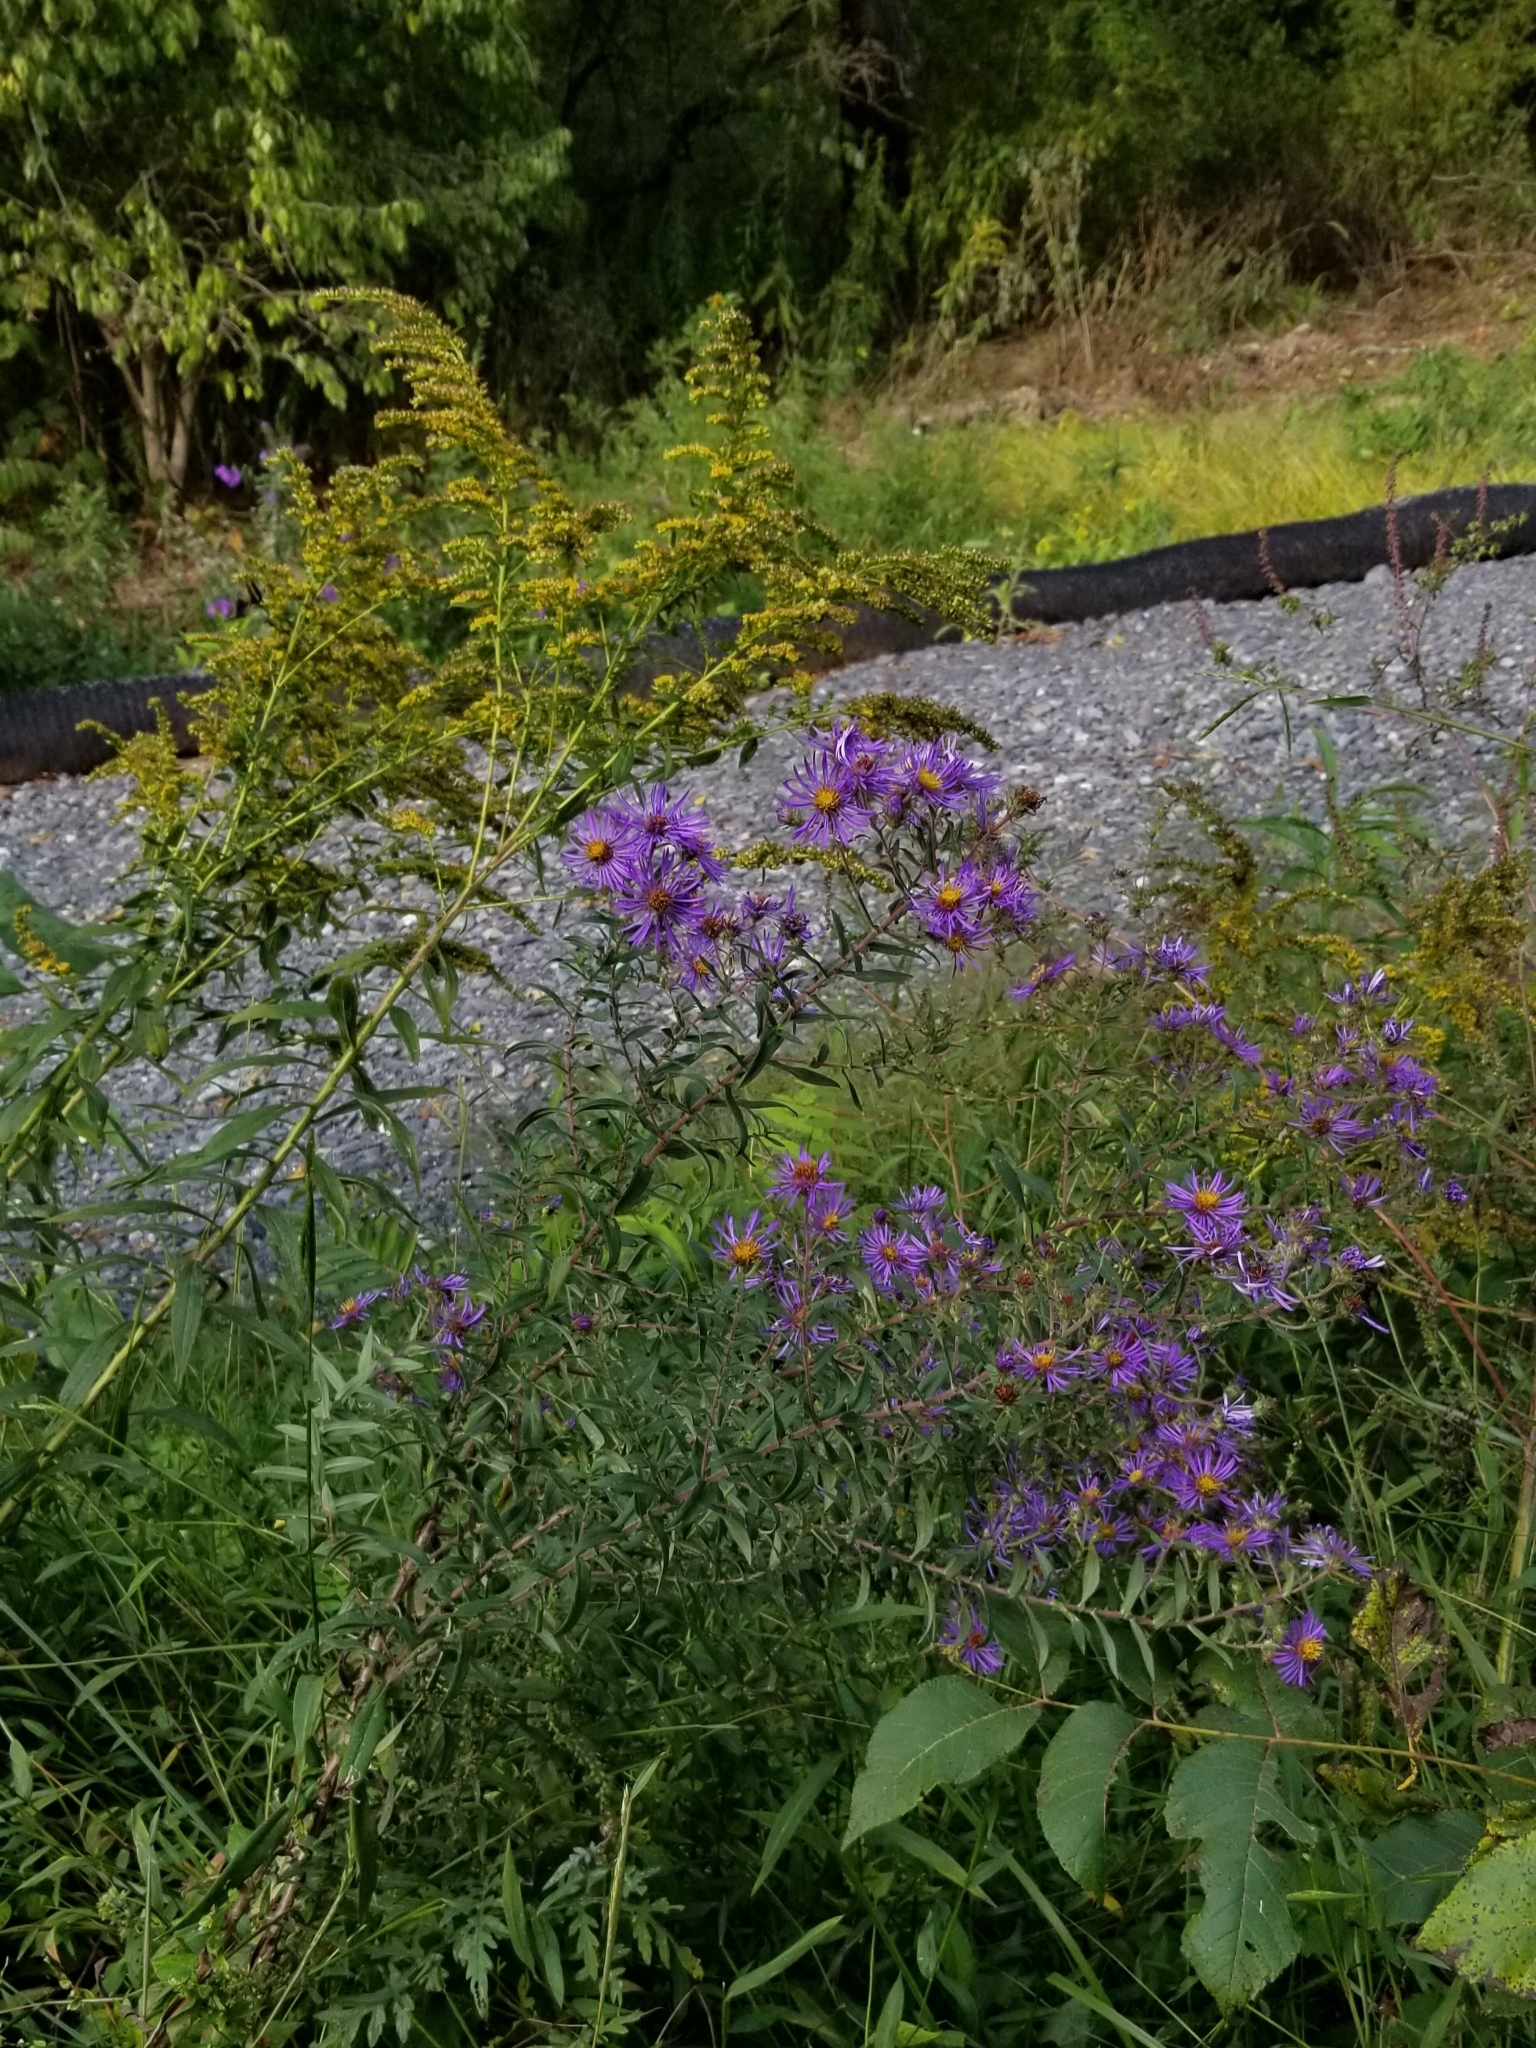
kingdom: Plantae
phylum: Tracheophyta
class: Magnoliopsida
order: Asterales
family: Asteraceae
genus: Symphyotrichum
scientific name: Symphyotrichum novae-angliae
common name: Michaelmas daisy
